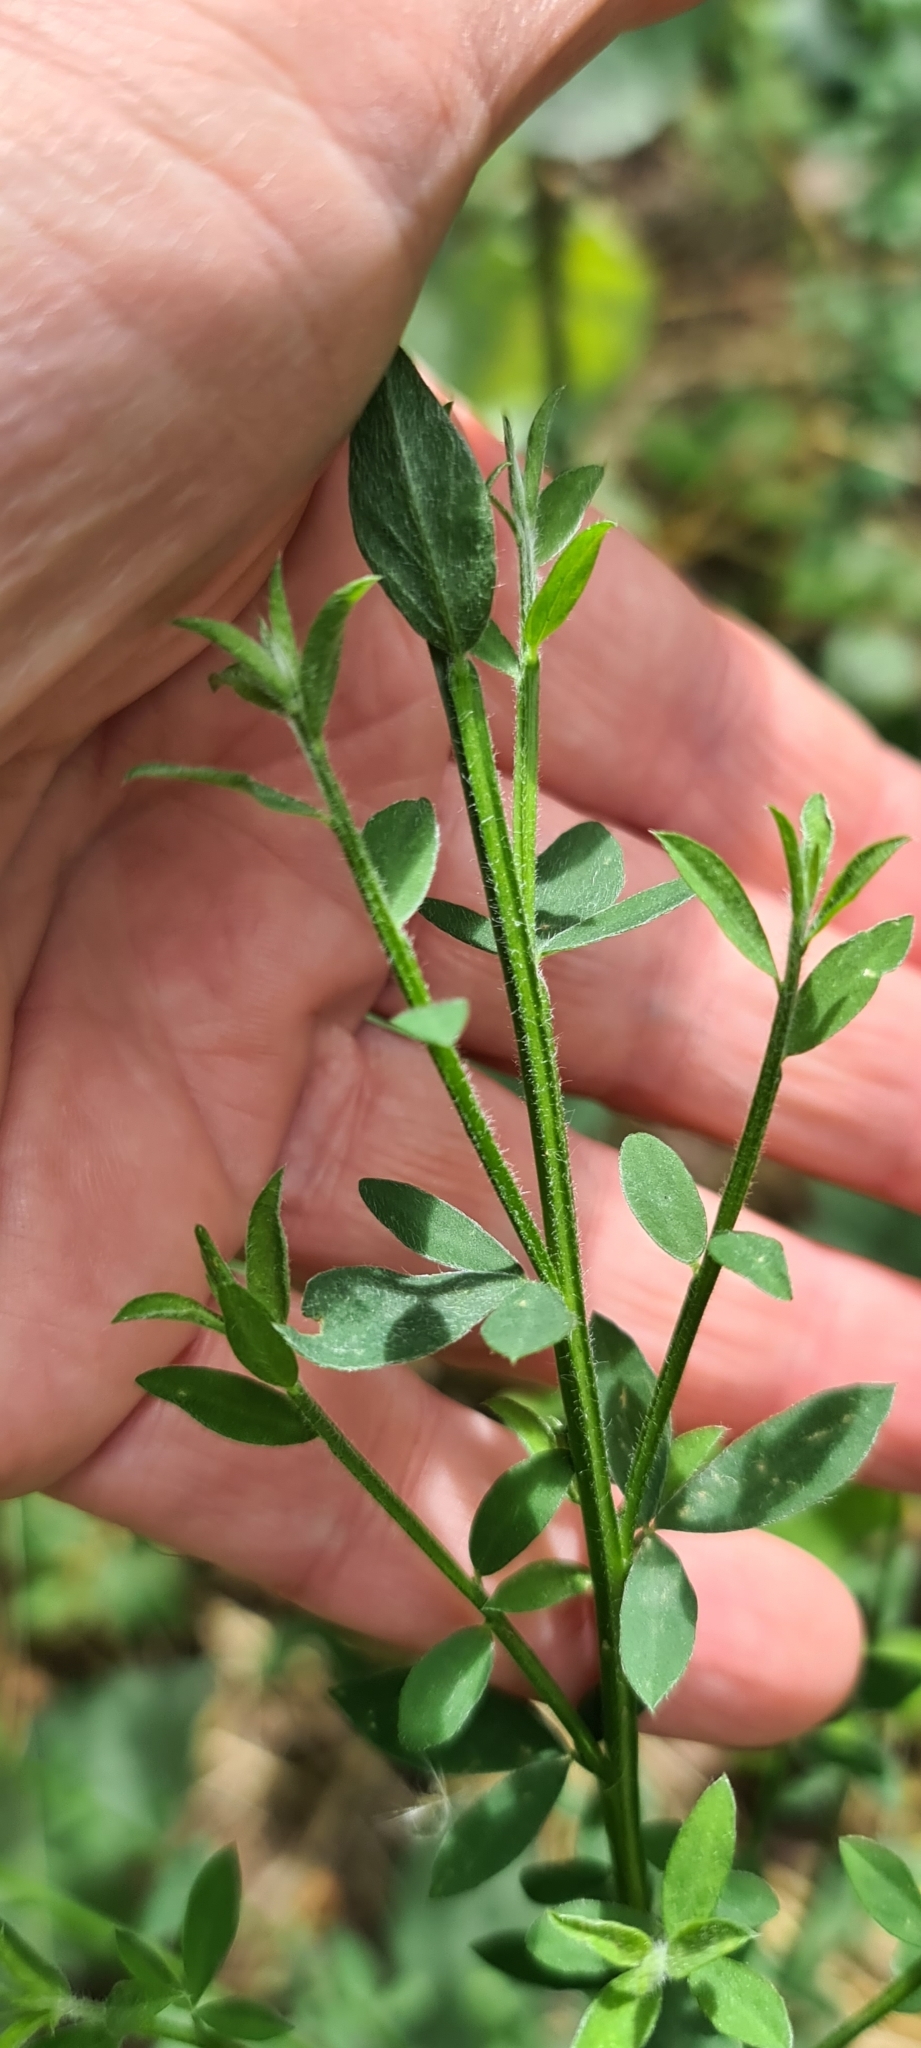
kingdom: Plantae
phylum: Tracheophyta
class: Magnoliopsida
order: Fabales
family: Fabaceae
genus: Cytisus
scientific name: Cytisus scoparius
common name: Scotch broom
